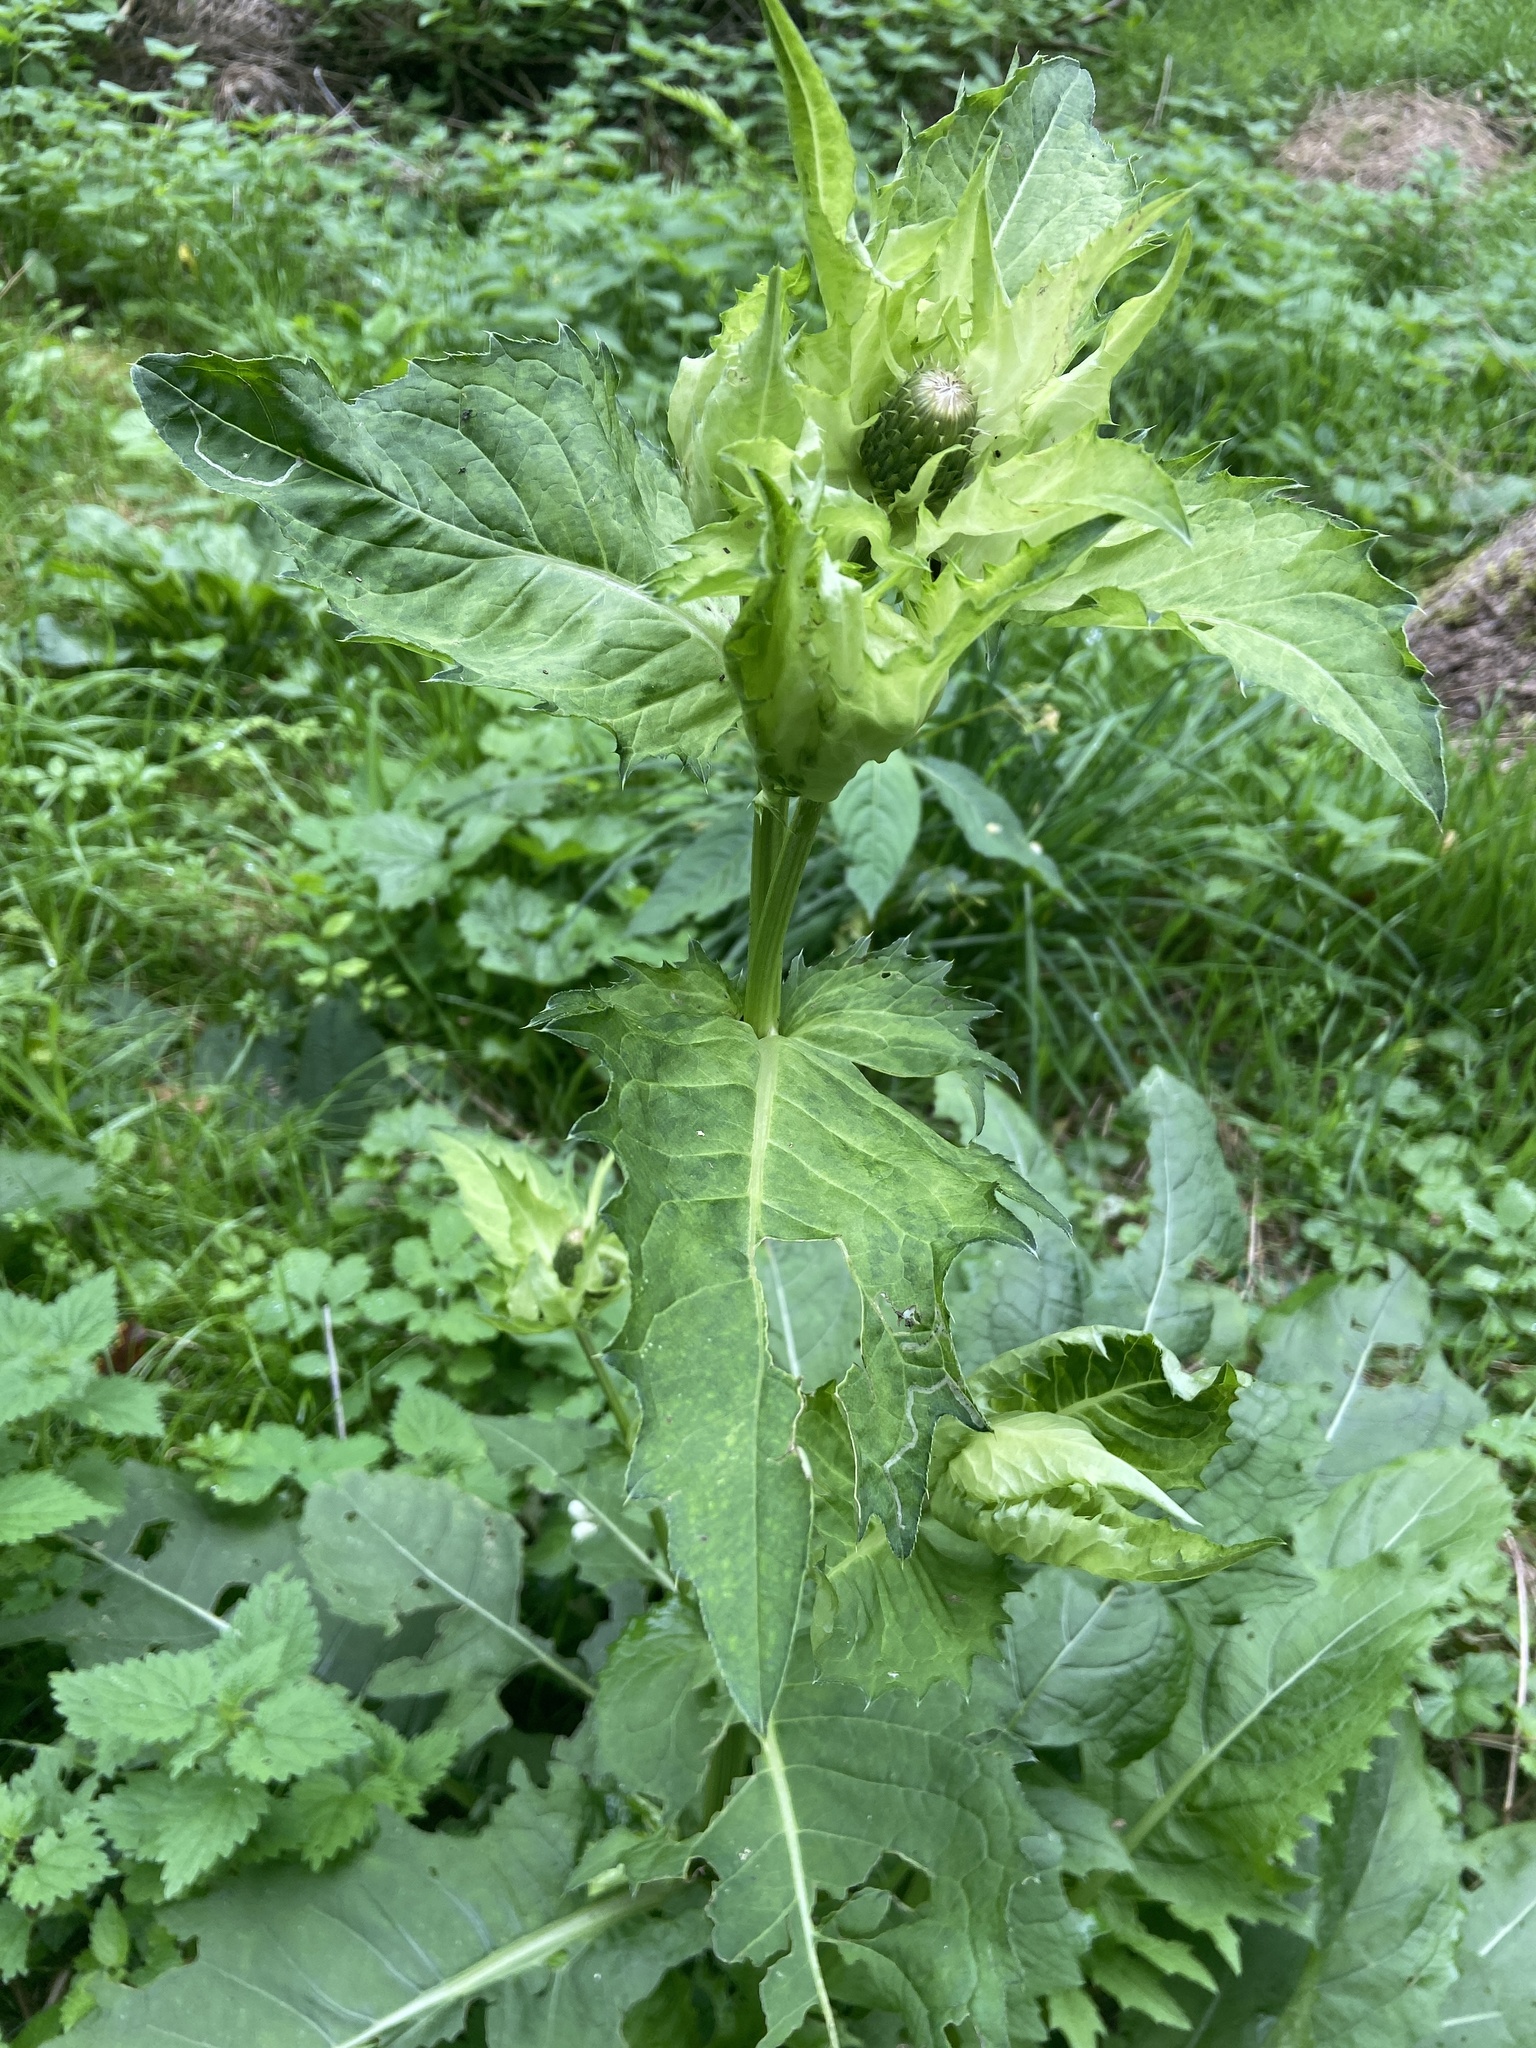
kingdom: Plantae
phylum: Tracheophyta
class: Magnoliopsida
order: Asterales
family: Asteraceae
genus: Cirsium
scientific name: Cirsium oleraceum
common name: Cabbage thistle
